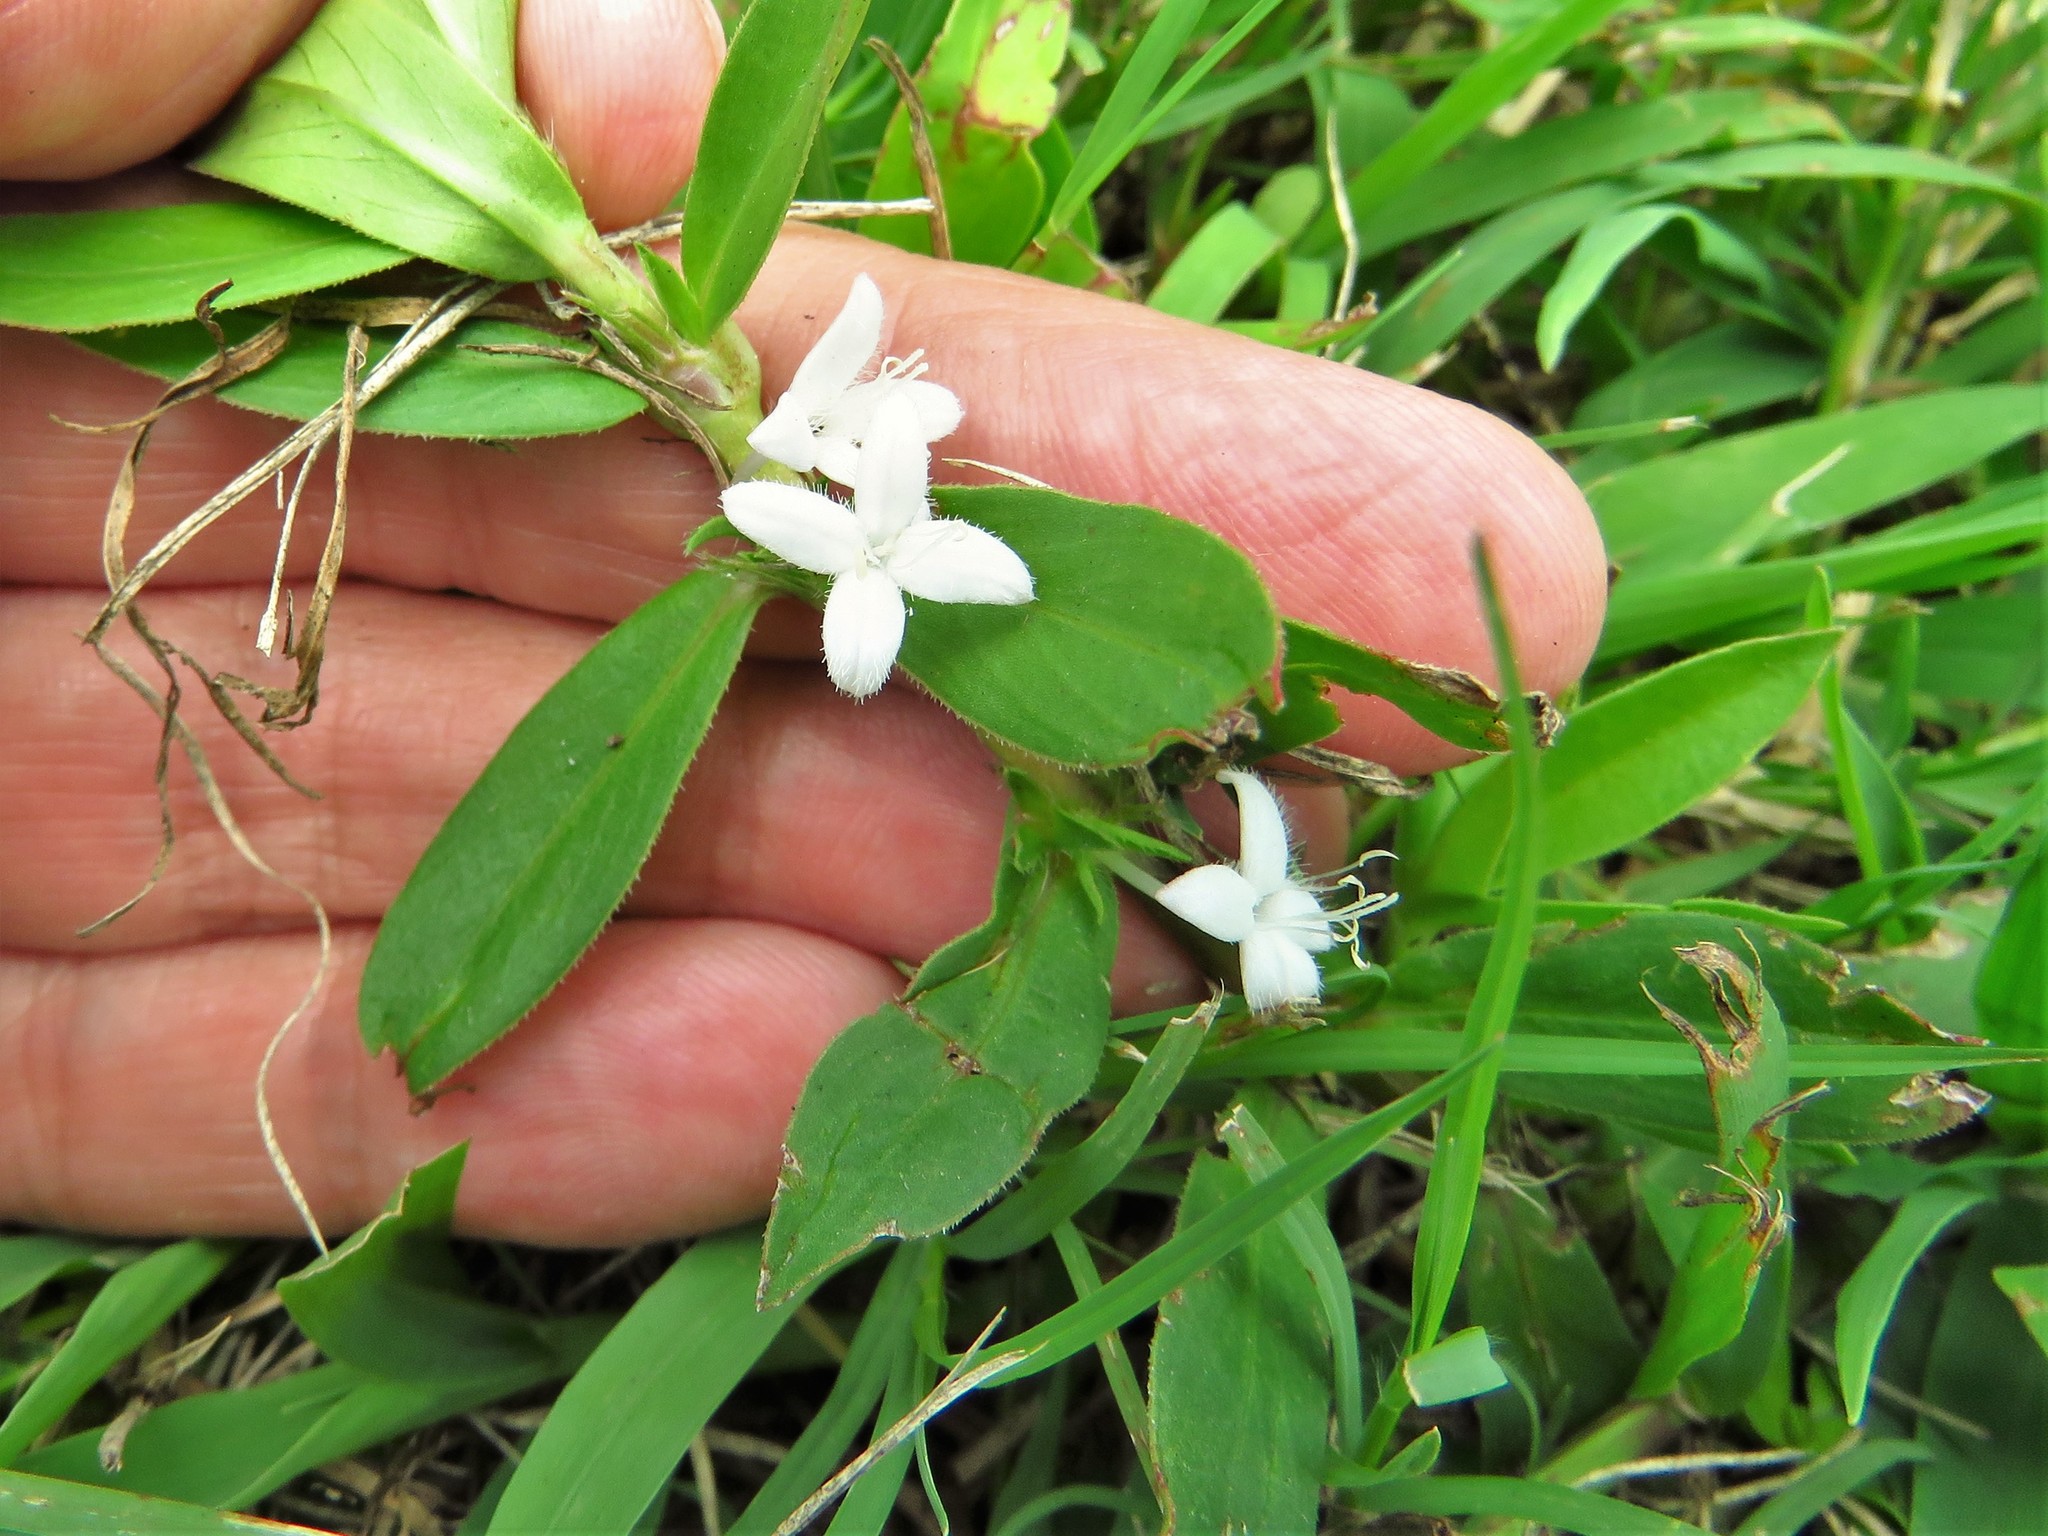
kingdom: Plantae
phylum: Tracheophyta
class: Magnoliopsida
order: Gentianales
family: Rubiaceae
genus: Diodia
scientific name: Diodia virginiana
